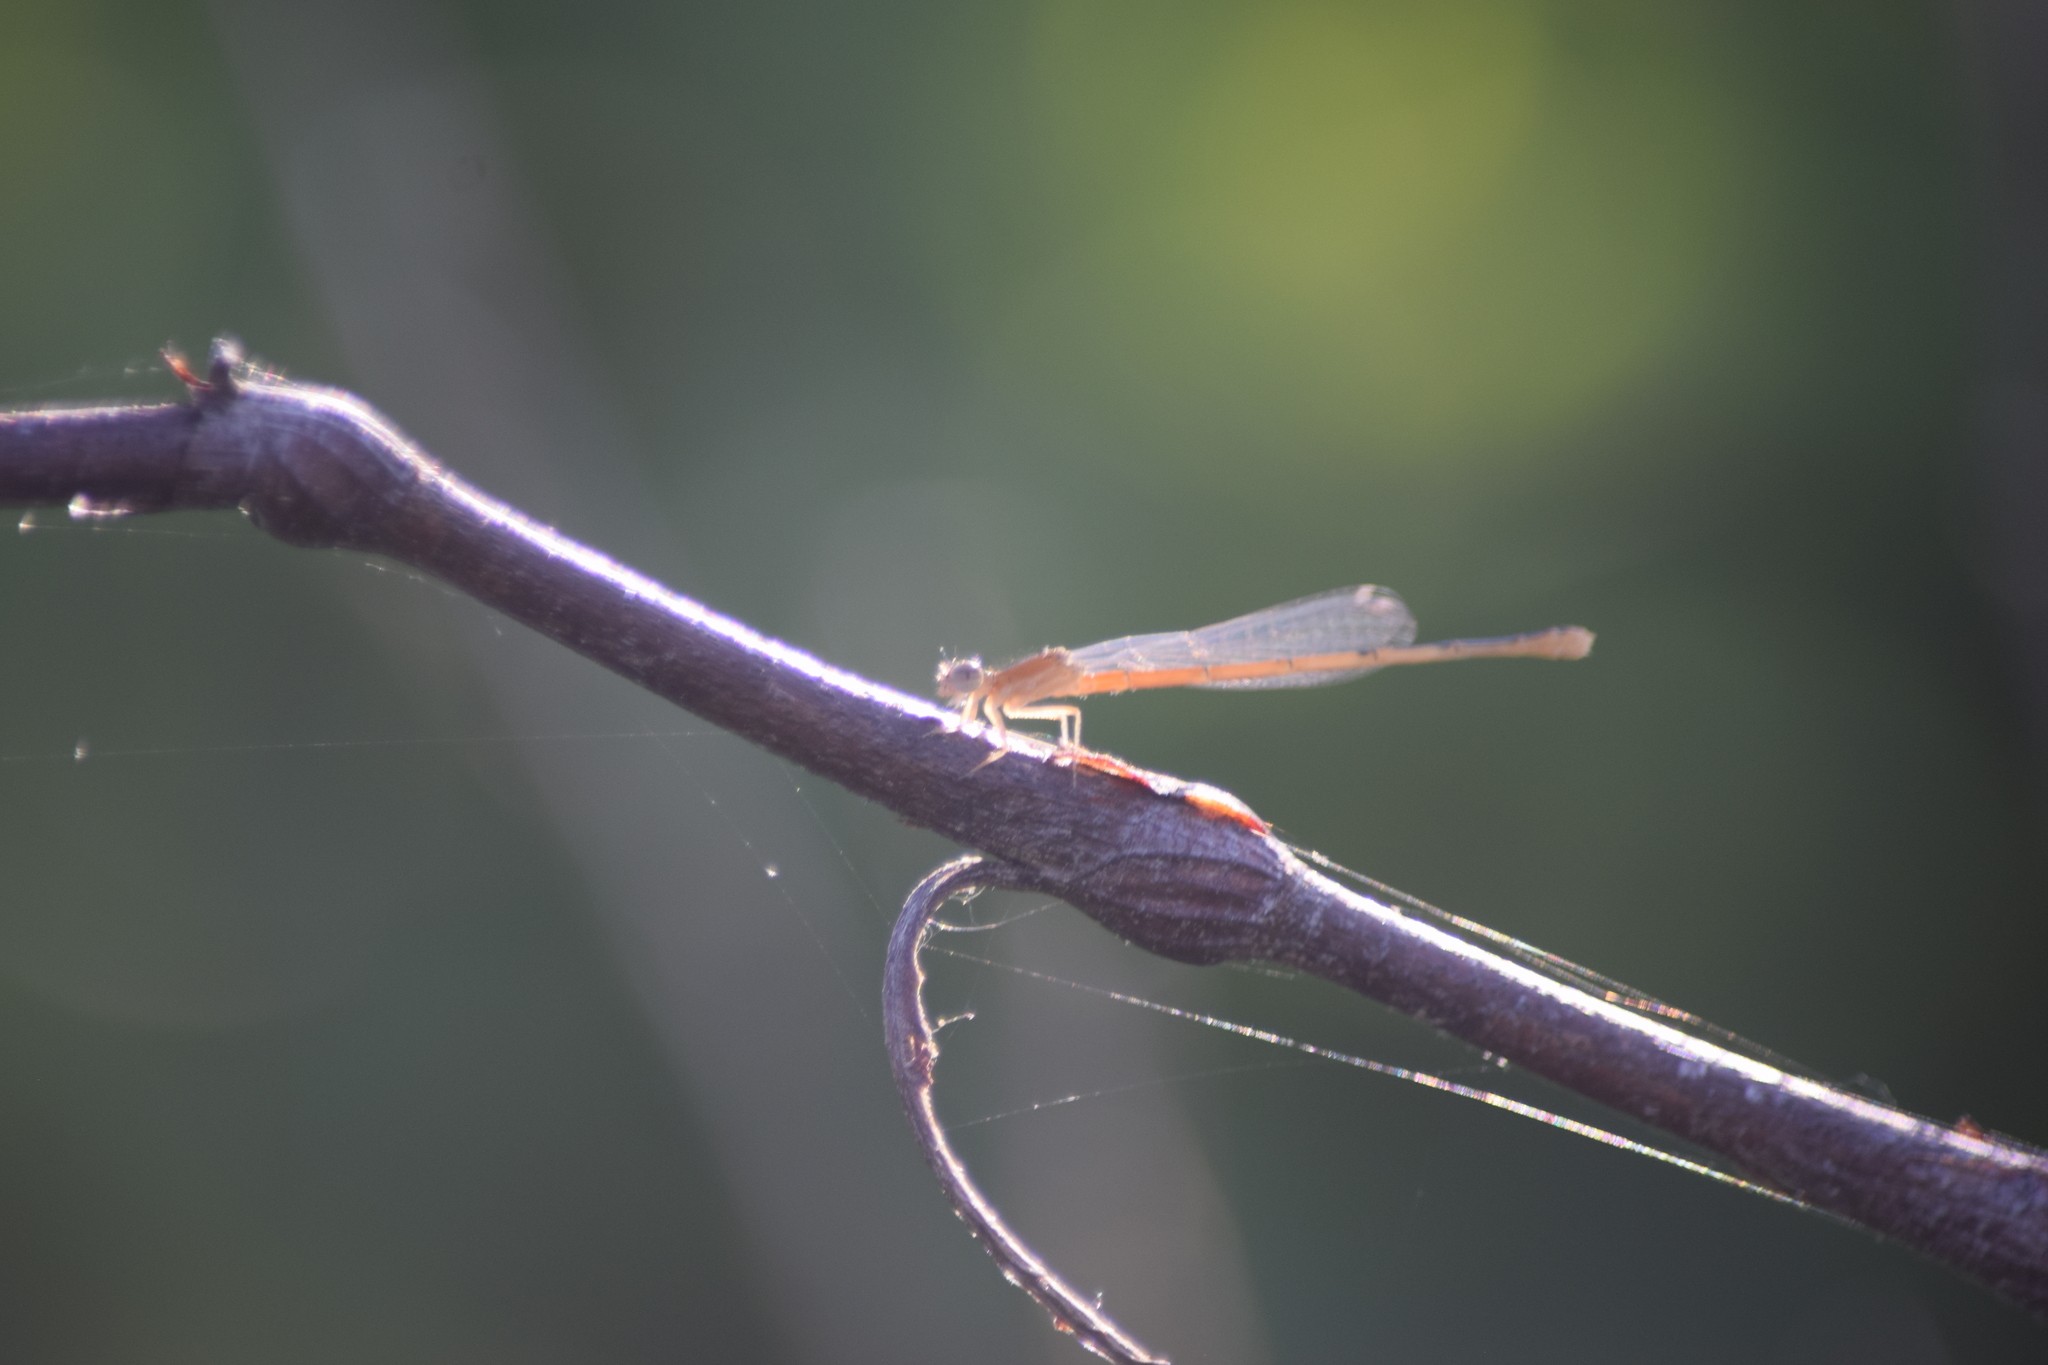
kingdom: Animalia
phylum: Arthropoda
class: Insecta
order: Odonata
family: Coenagrionidae
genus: Ischnura
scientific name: Ischnura hastata
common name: Citrine forktail
